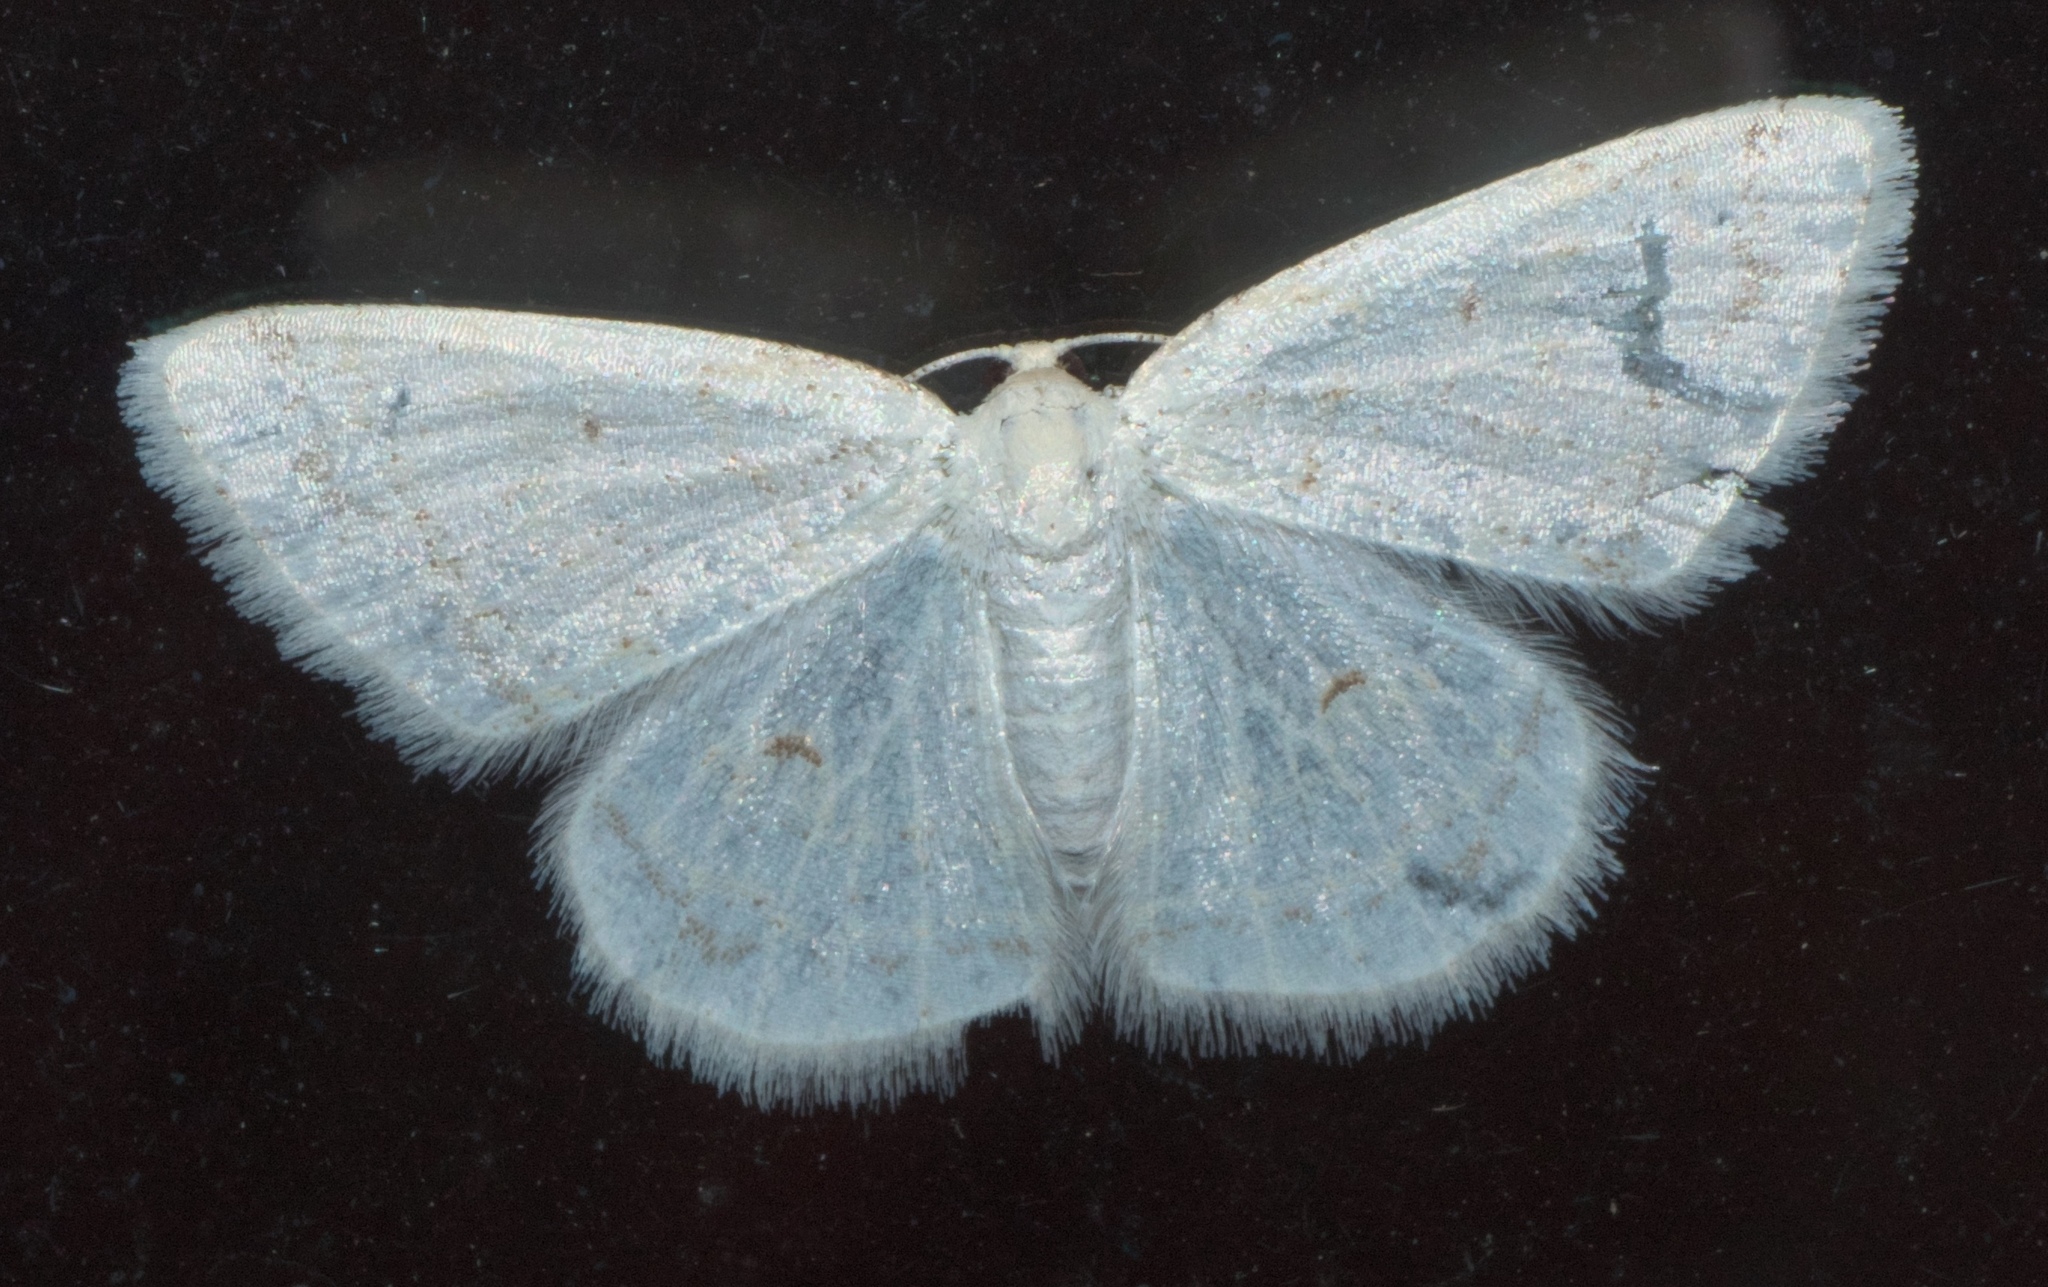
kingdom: Animalia
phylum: Arthropoda
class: Insecta
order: Lepidoptera
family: Geometridae
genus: Protitame
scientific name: Protitame virginalis
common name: Virgin moth
